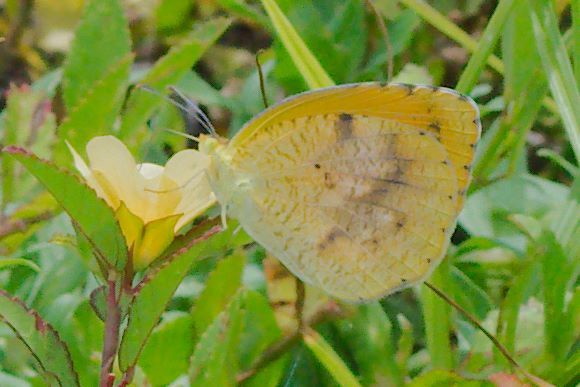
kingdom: Animalia
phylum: Arthropoda
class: Insecta
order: Lepidoptera
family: Pieridae
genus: Abaeis
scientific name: Abaeis nicippe
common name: Sleepy orange
